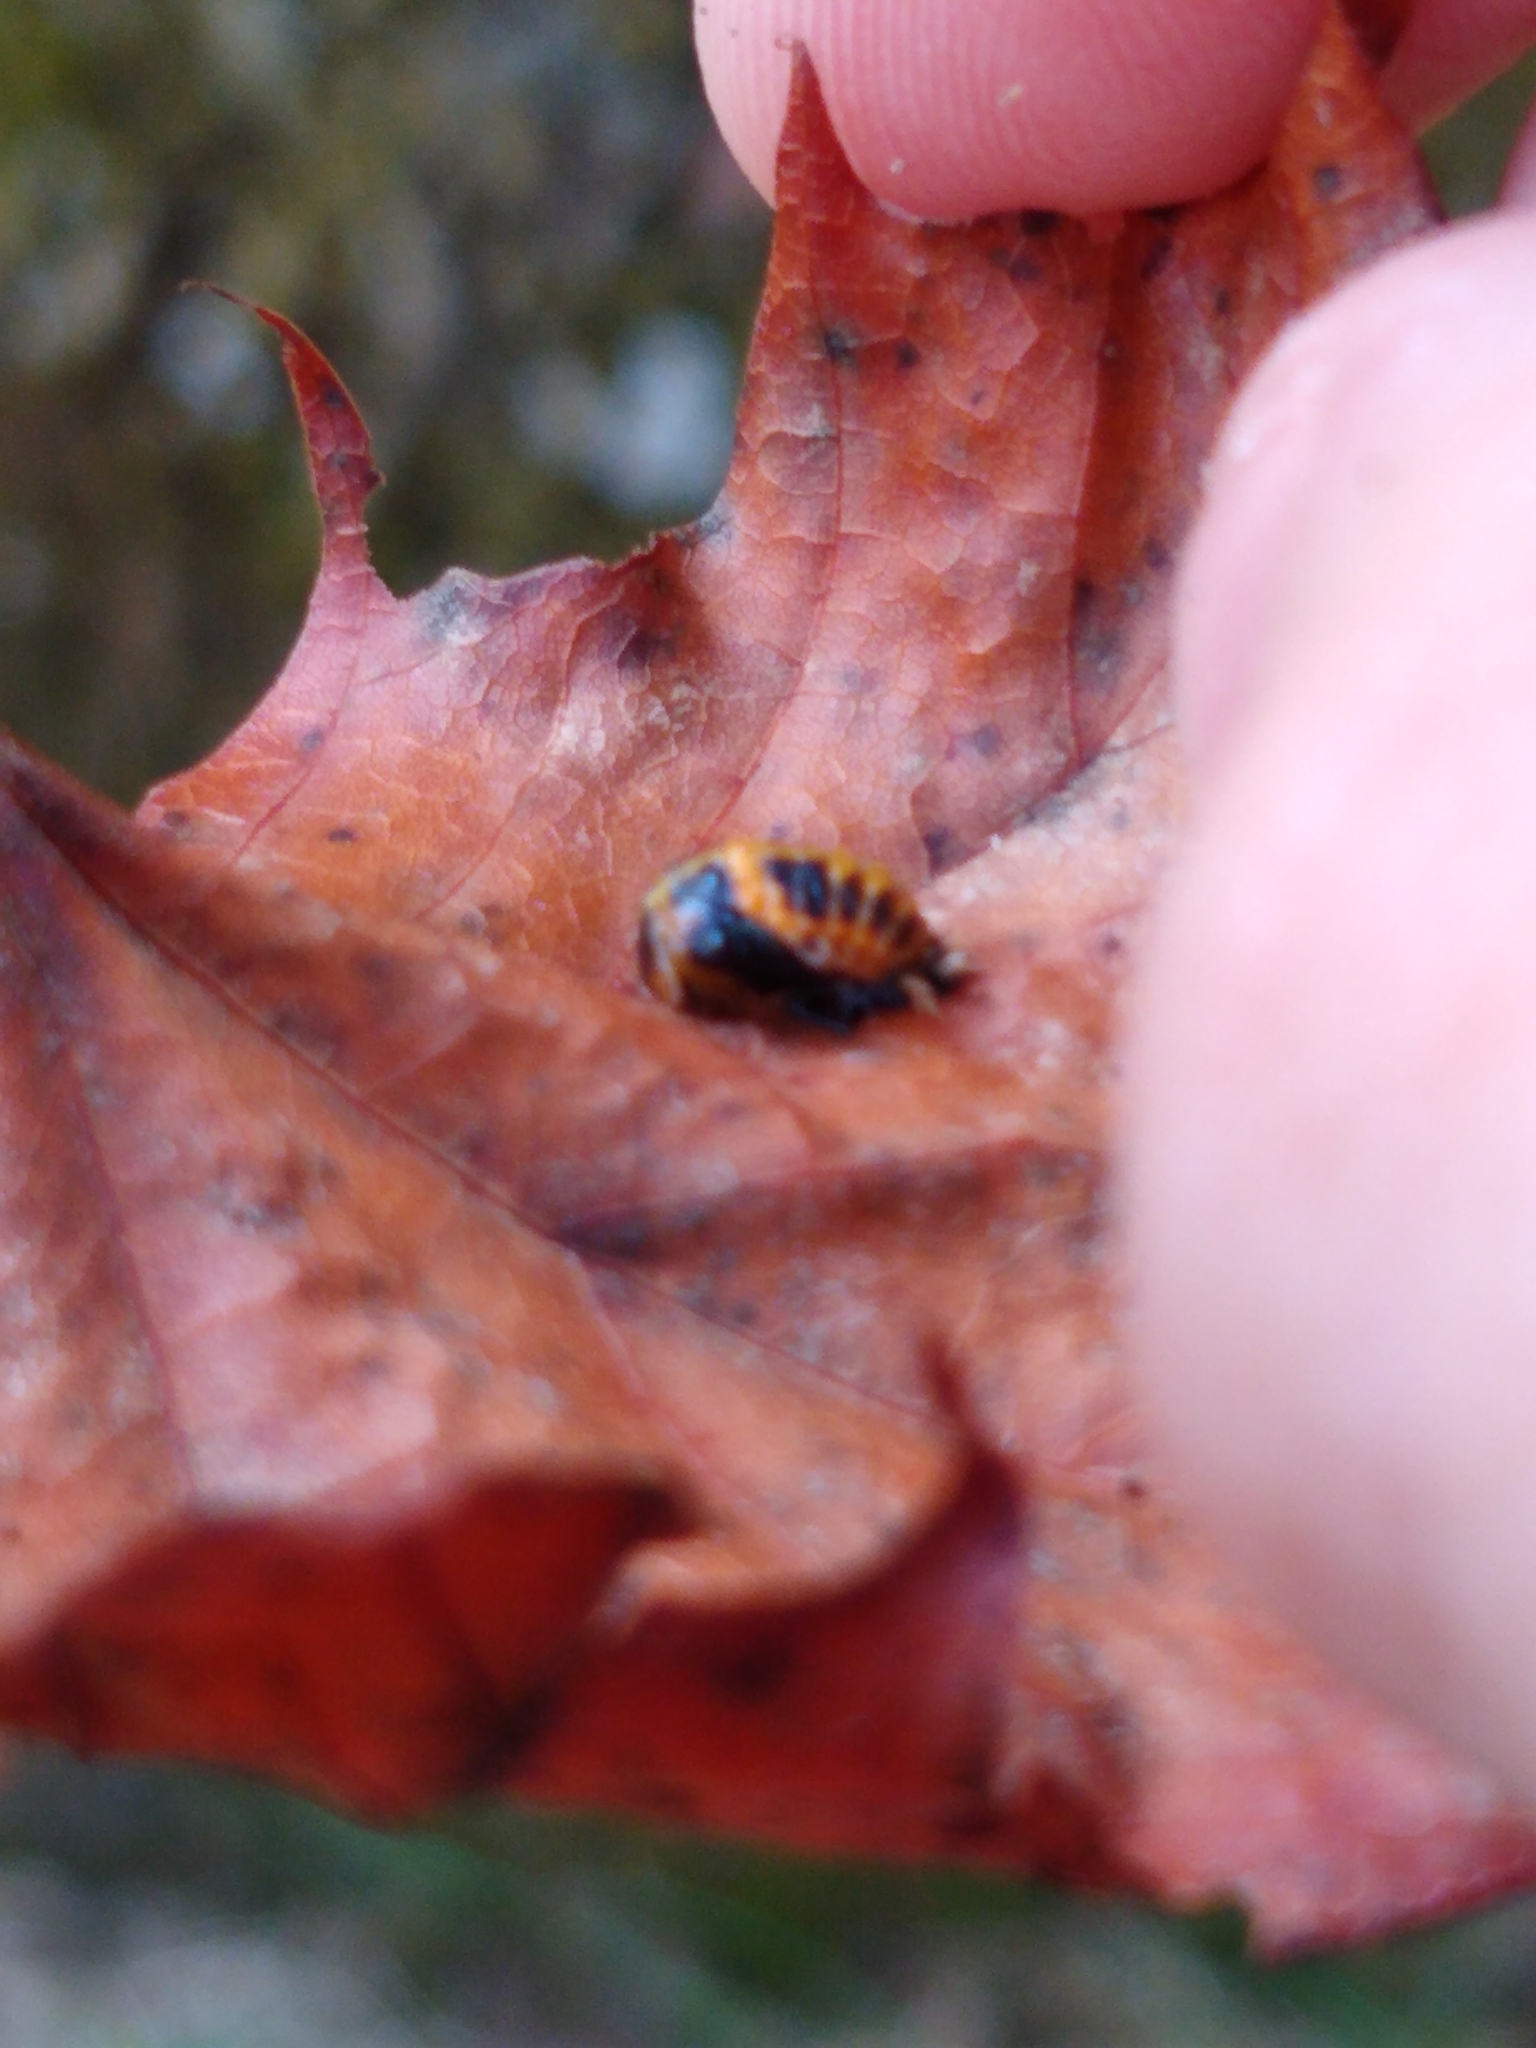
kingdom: Animalia
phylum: Arthropoda
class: Insecta
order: Coleoptera
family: Coccinellidae
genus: Harmonia
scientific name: Harmonia axyridis
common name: Harlequin ladybird
